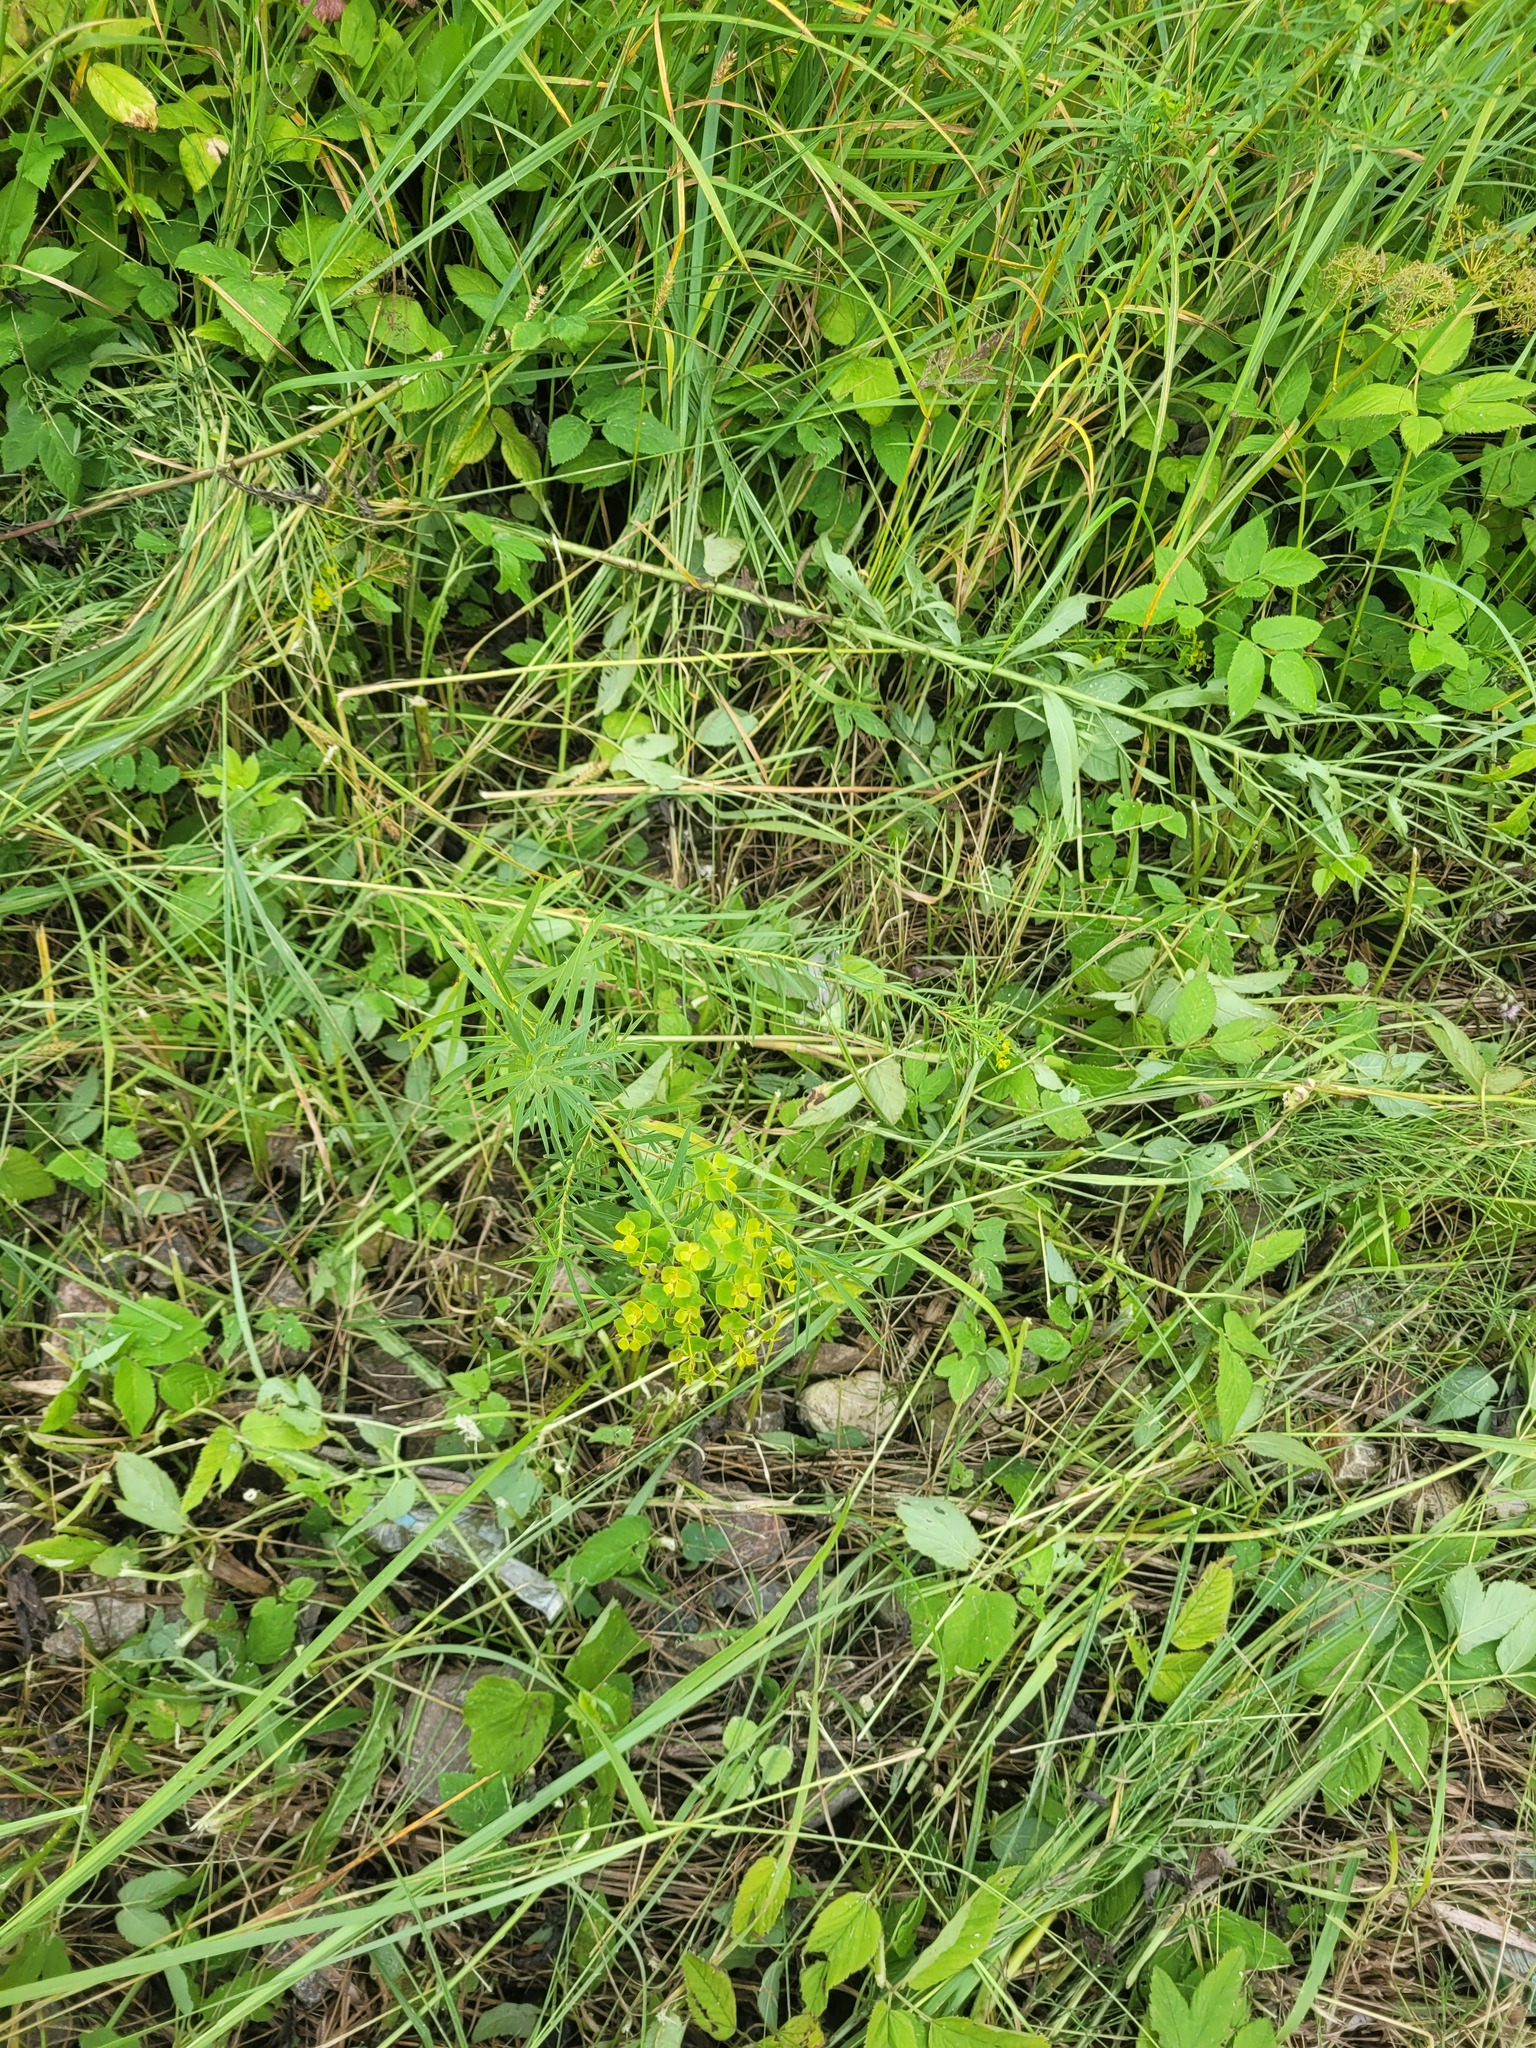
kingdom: Plantae
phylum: Tracheophyta
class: Magnoliopsida
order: Malpighiales
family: Euphorbiaceae
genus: Euphorbia
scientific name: Euphorbia virgata
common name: Leafy spurge
